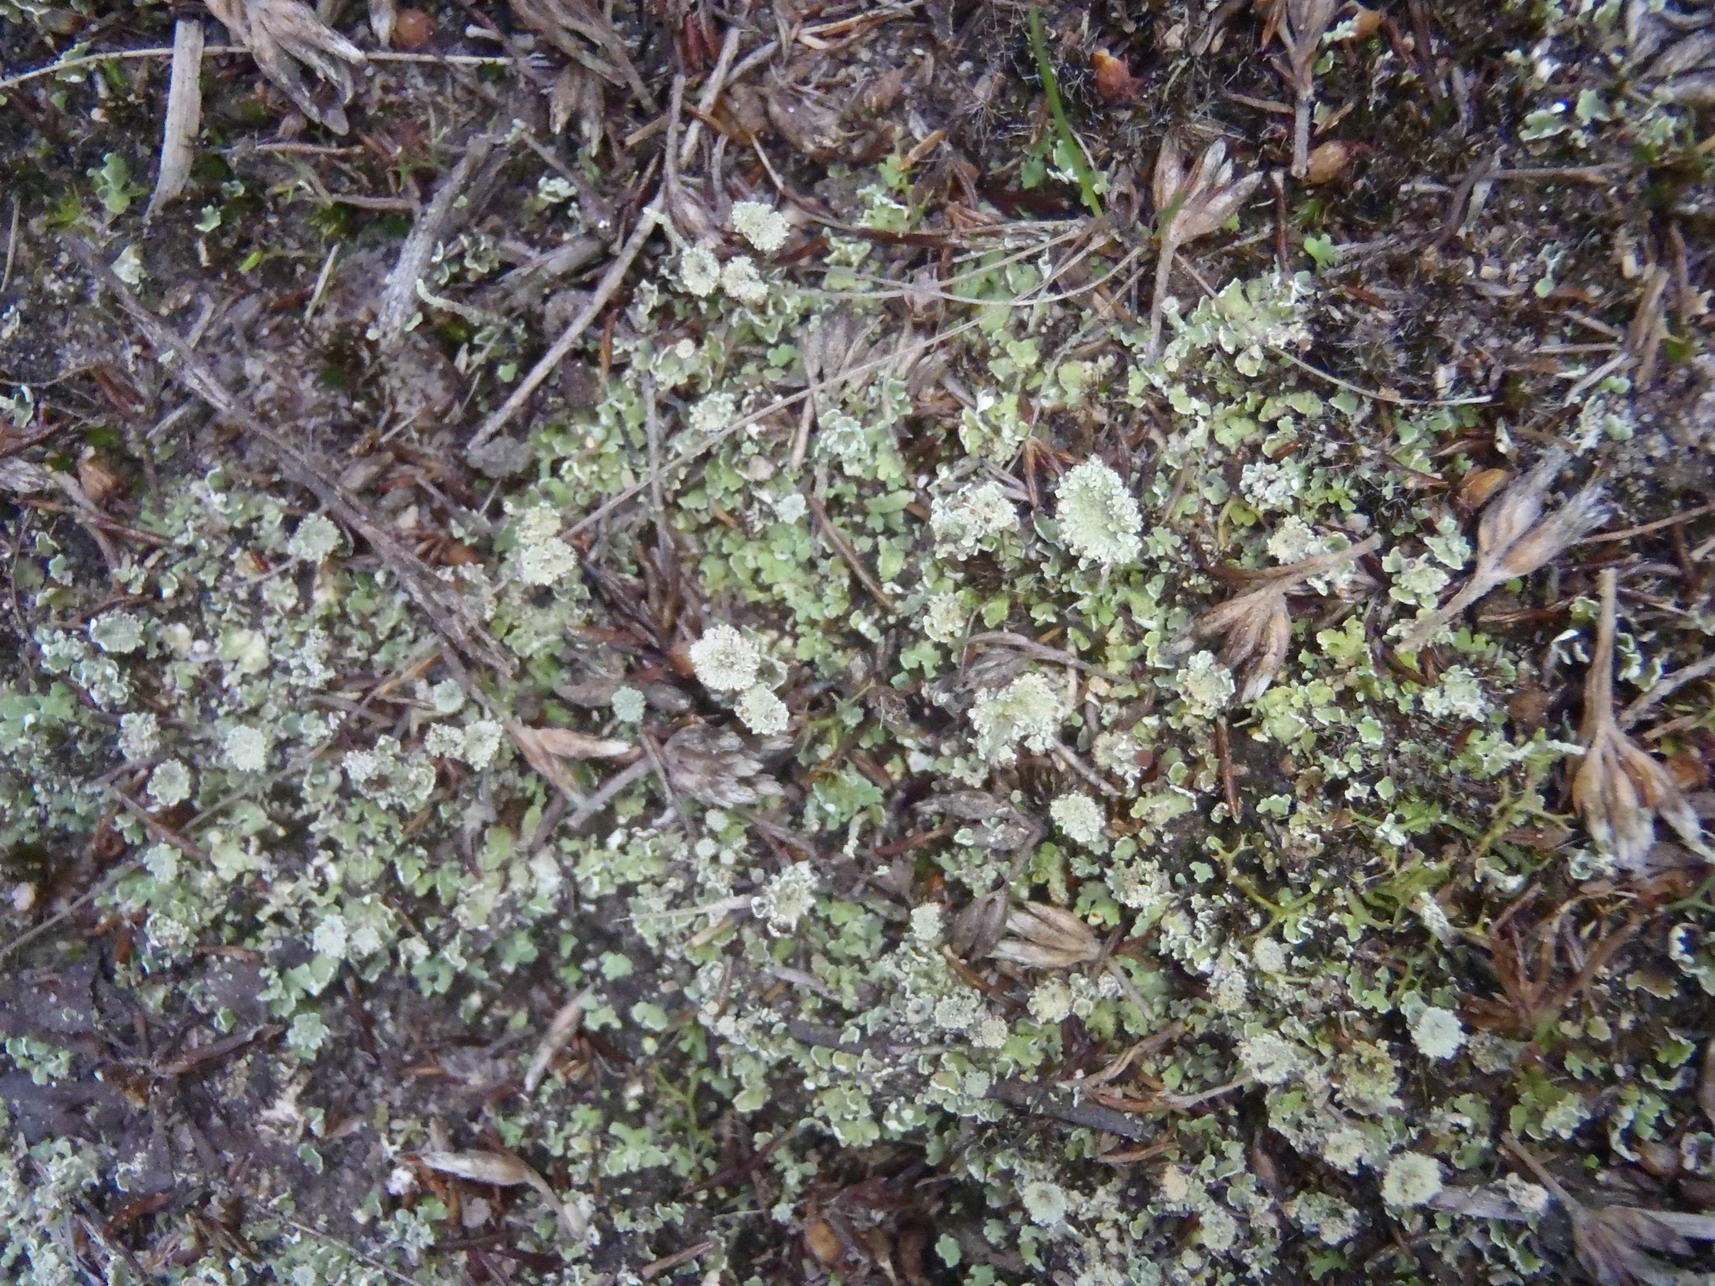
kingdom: Fungi
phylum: Ascomycota
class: Lecanoromycetes
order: Lecanorales
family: Cladoniaceae
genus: Cladonia
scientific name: Cladonia pocillum
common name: Rosette pixie-cup lichen
